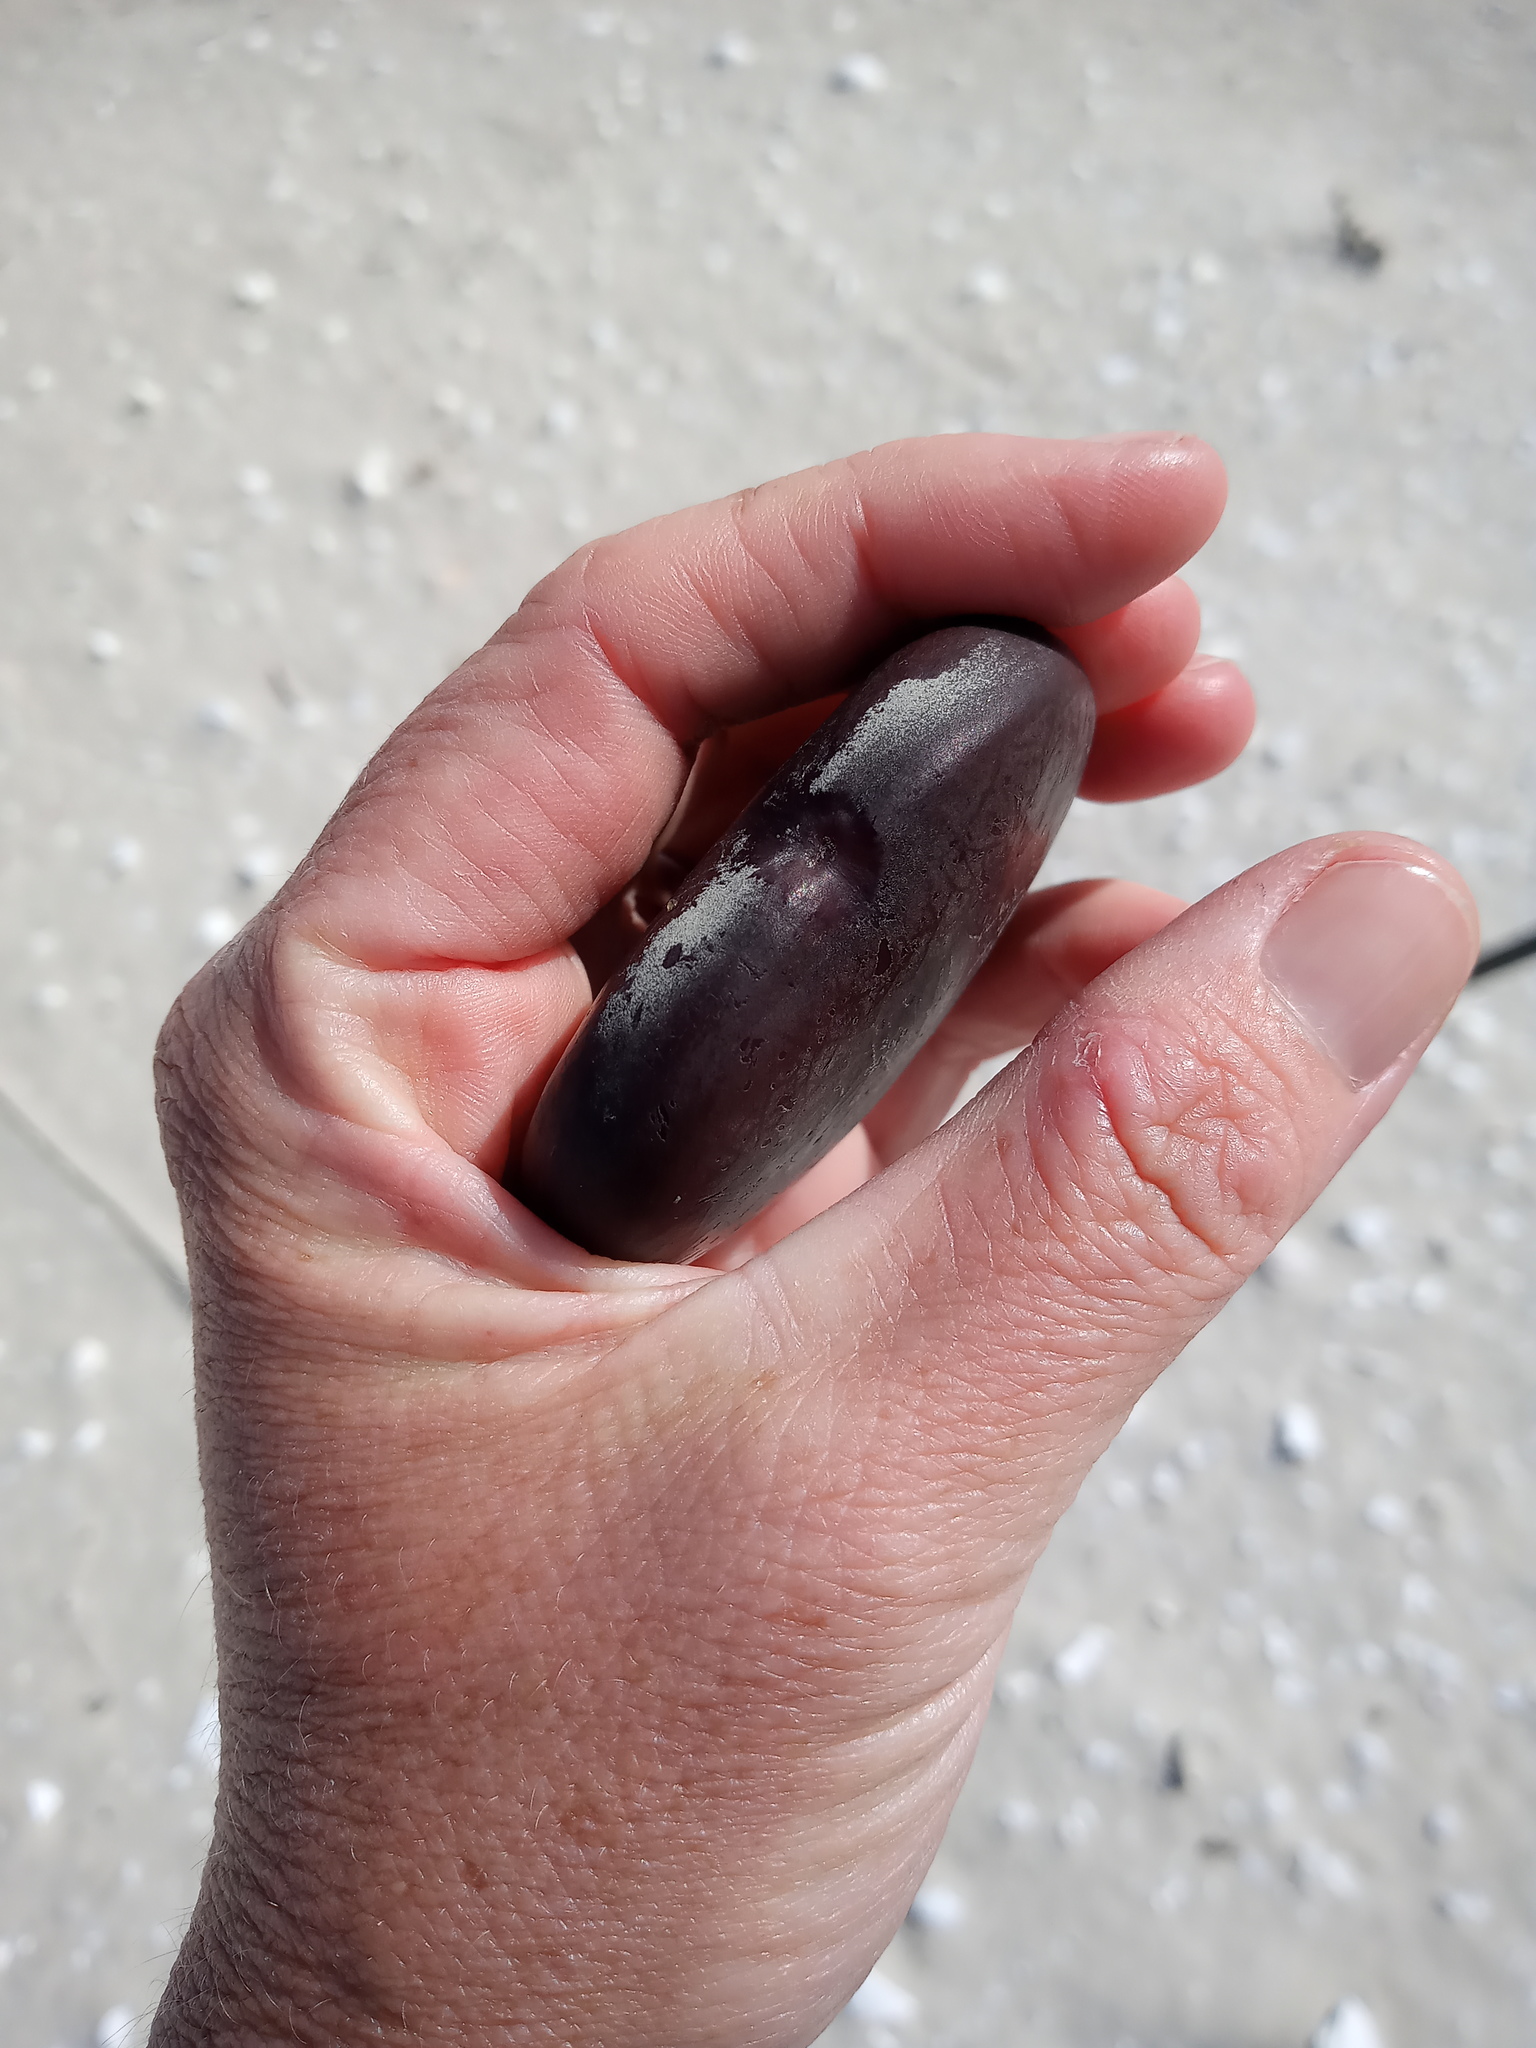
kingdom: Plantae
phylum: Tracheophyta
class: Magnoliopsida
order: Fabales
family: Fabaceae
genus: Entada
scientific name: Entada gigas
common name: Nicker-bean
